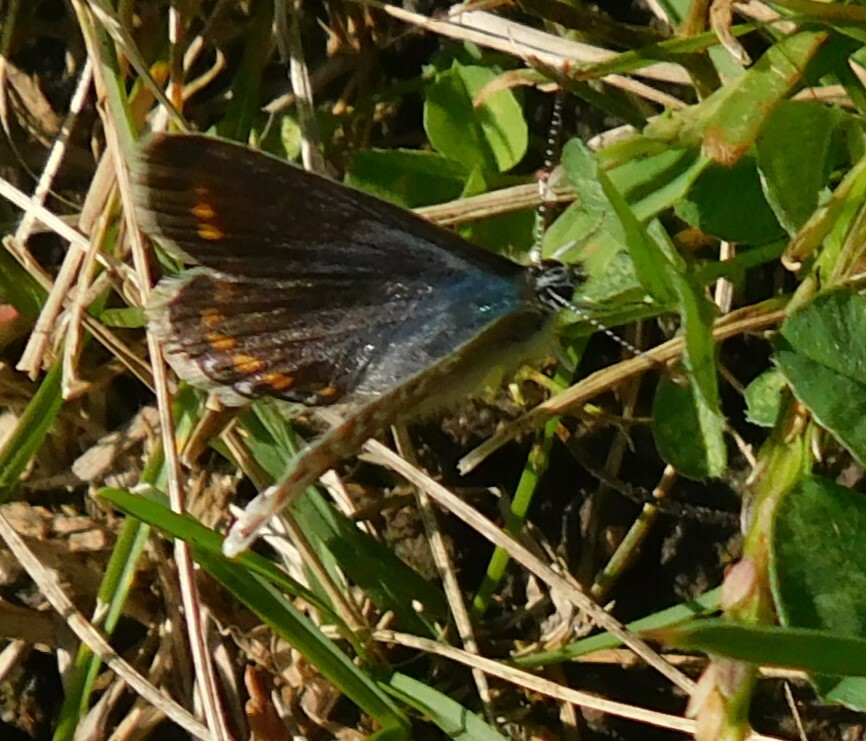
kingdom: Animalia
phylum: Arthropoda
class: Insecta
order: Lepidoptera
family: Lycaenidae
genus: Polyommatus
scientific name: Polyommatus icarus
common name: Common blue
